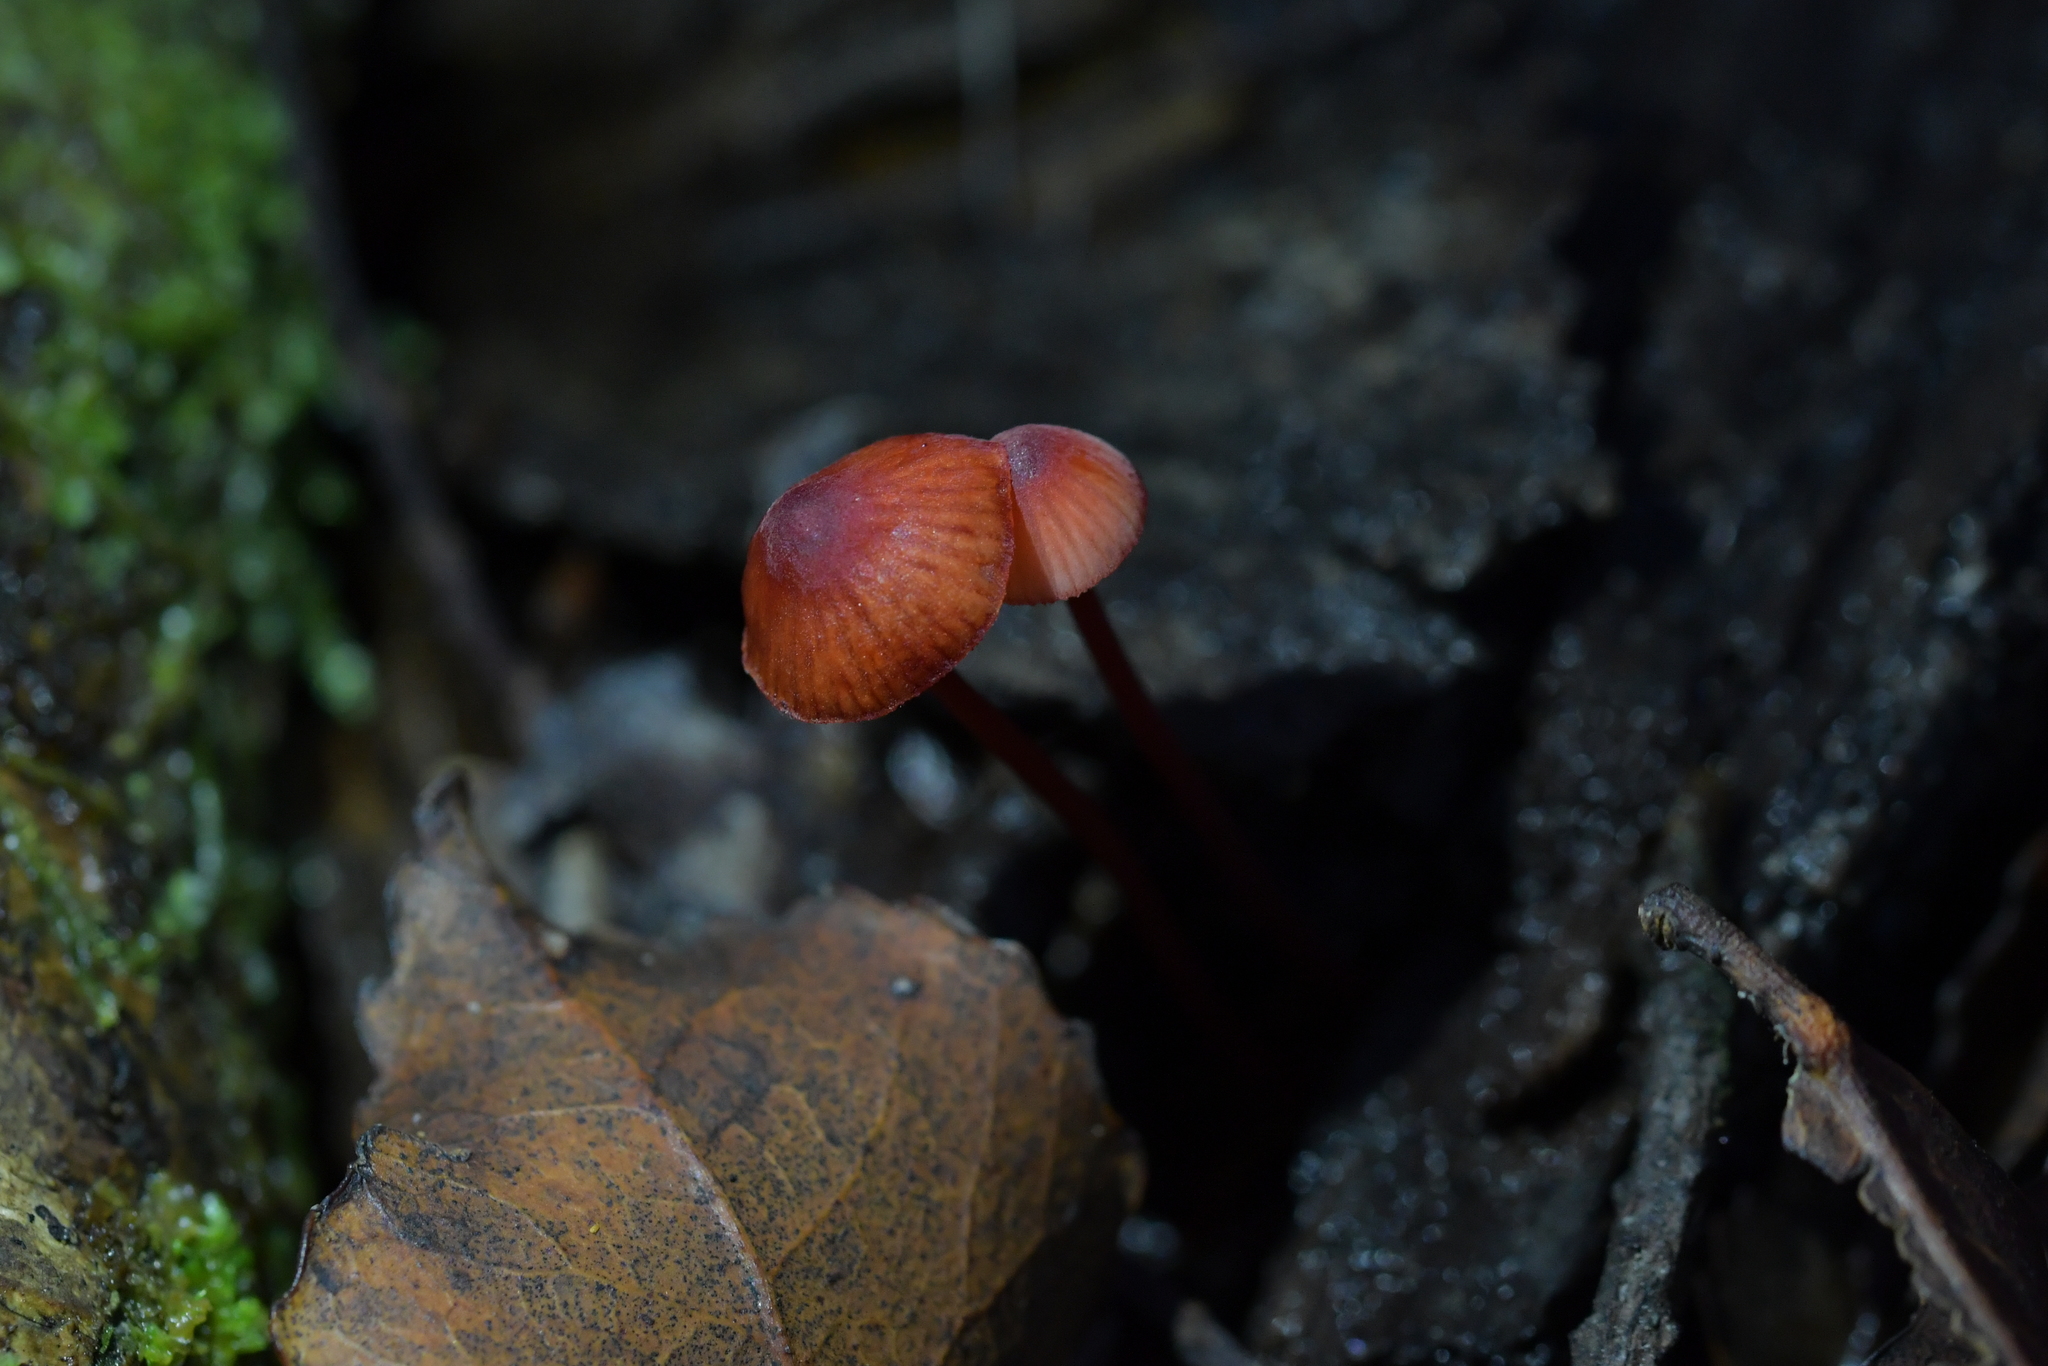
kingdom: Fungi
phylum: Basidiomycota
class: Agaricomycetes
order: Agaricales
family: Mycenaceae
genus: Mycena
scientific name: Mycena ura
